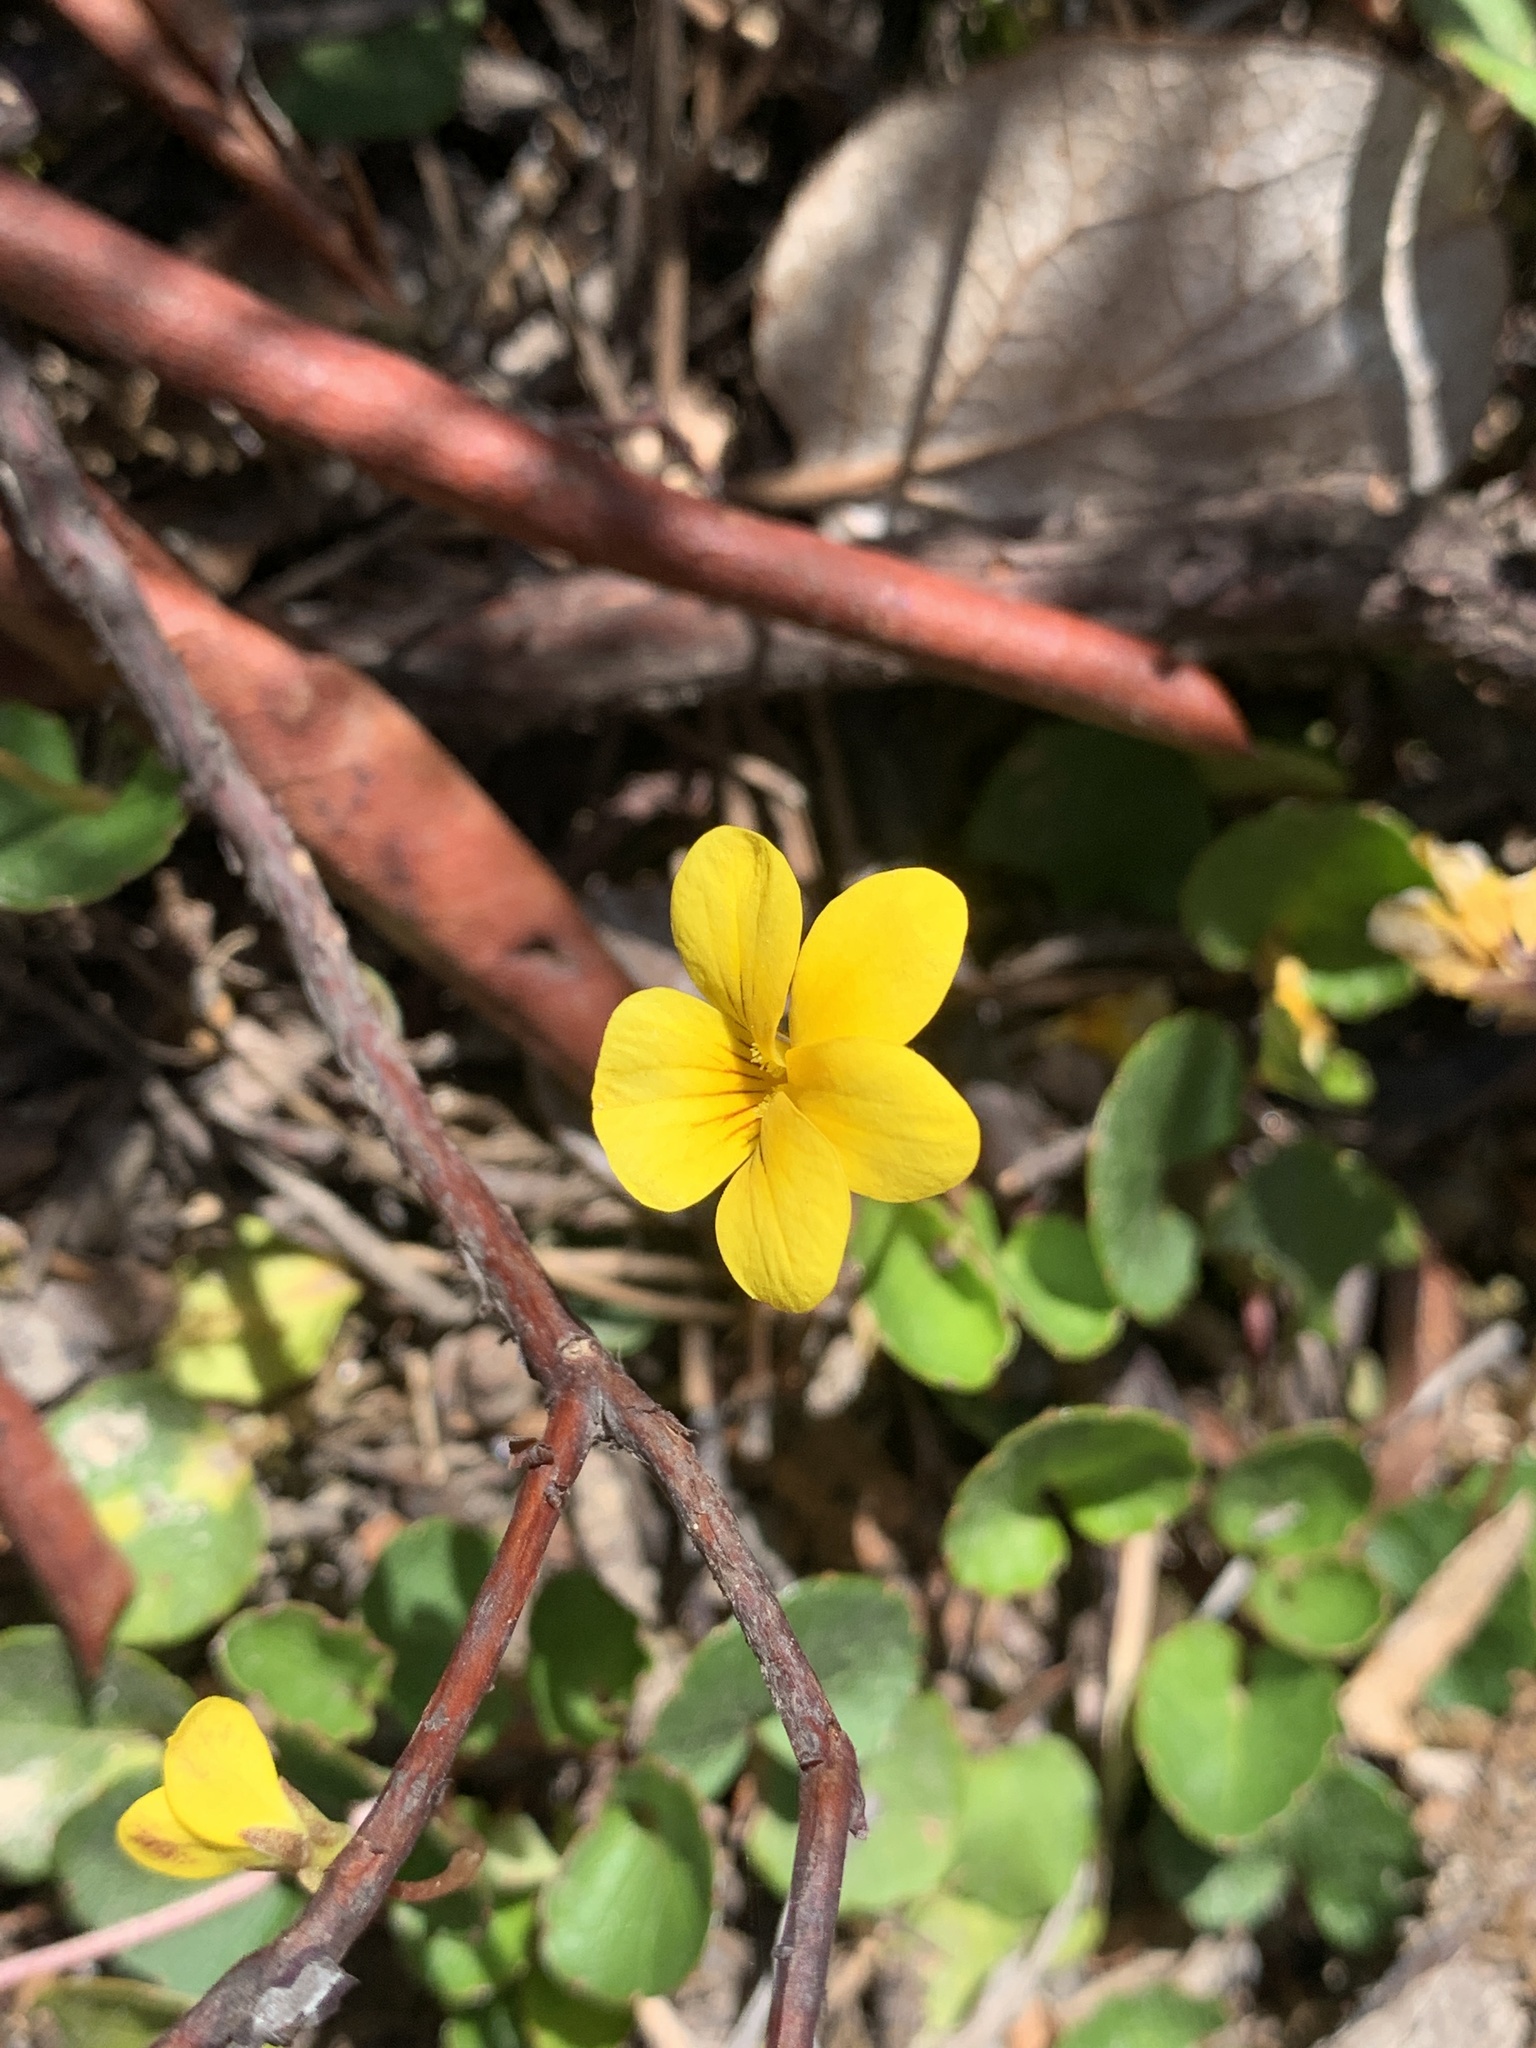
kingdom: Plantae
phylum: Tracheophyta
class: Magnoliopsida
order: Malpighiales
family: Violaceae
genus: Viola
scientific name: Viola sempervirens
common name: Evergreen violet
